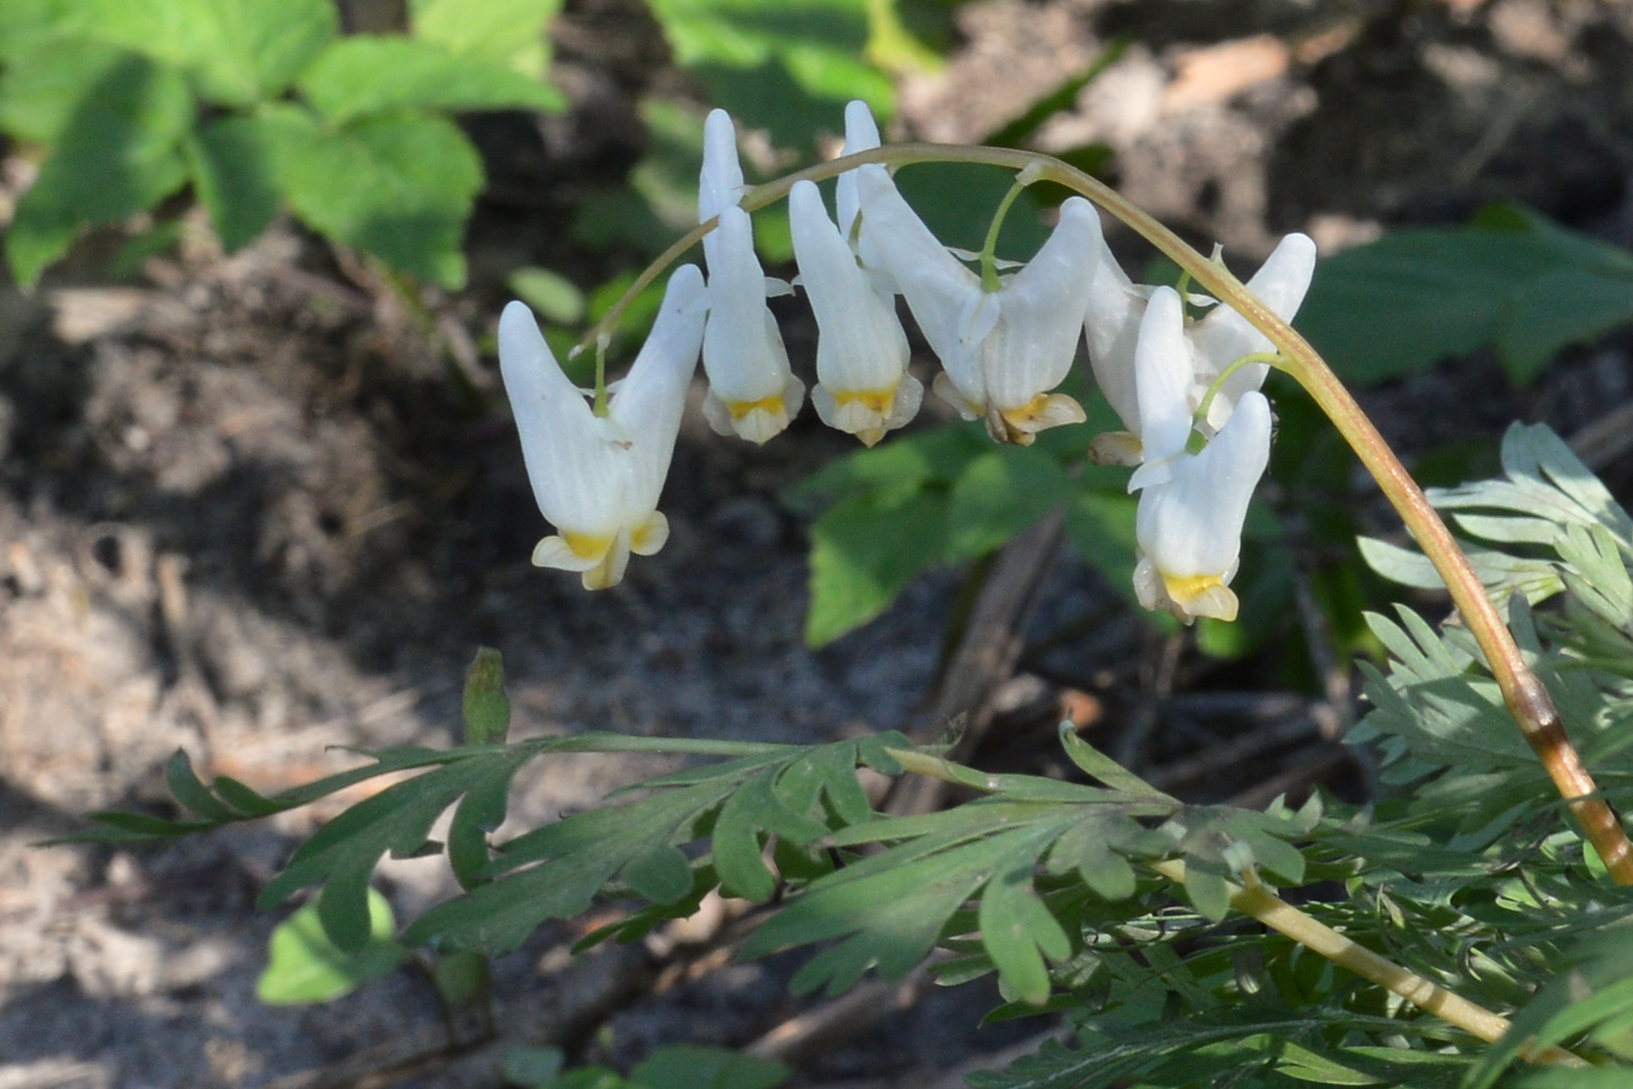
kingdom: Plantae
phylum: Tracheophyta
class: Magnoliopsida
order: Ranunculales
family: Papaveraceae
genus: Dicentra
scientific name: Dicentra cucullaria
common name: Dutchman's breeches
